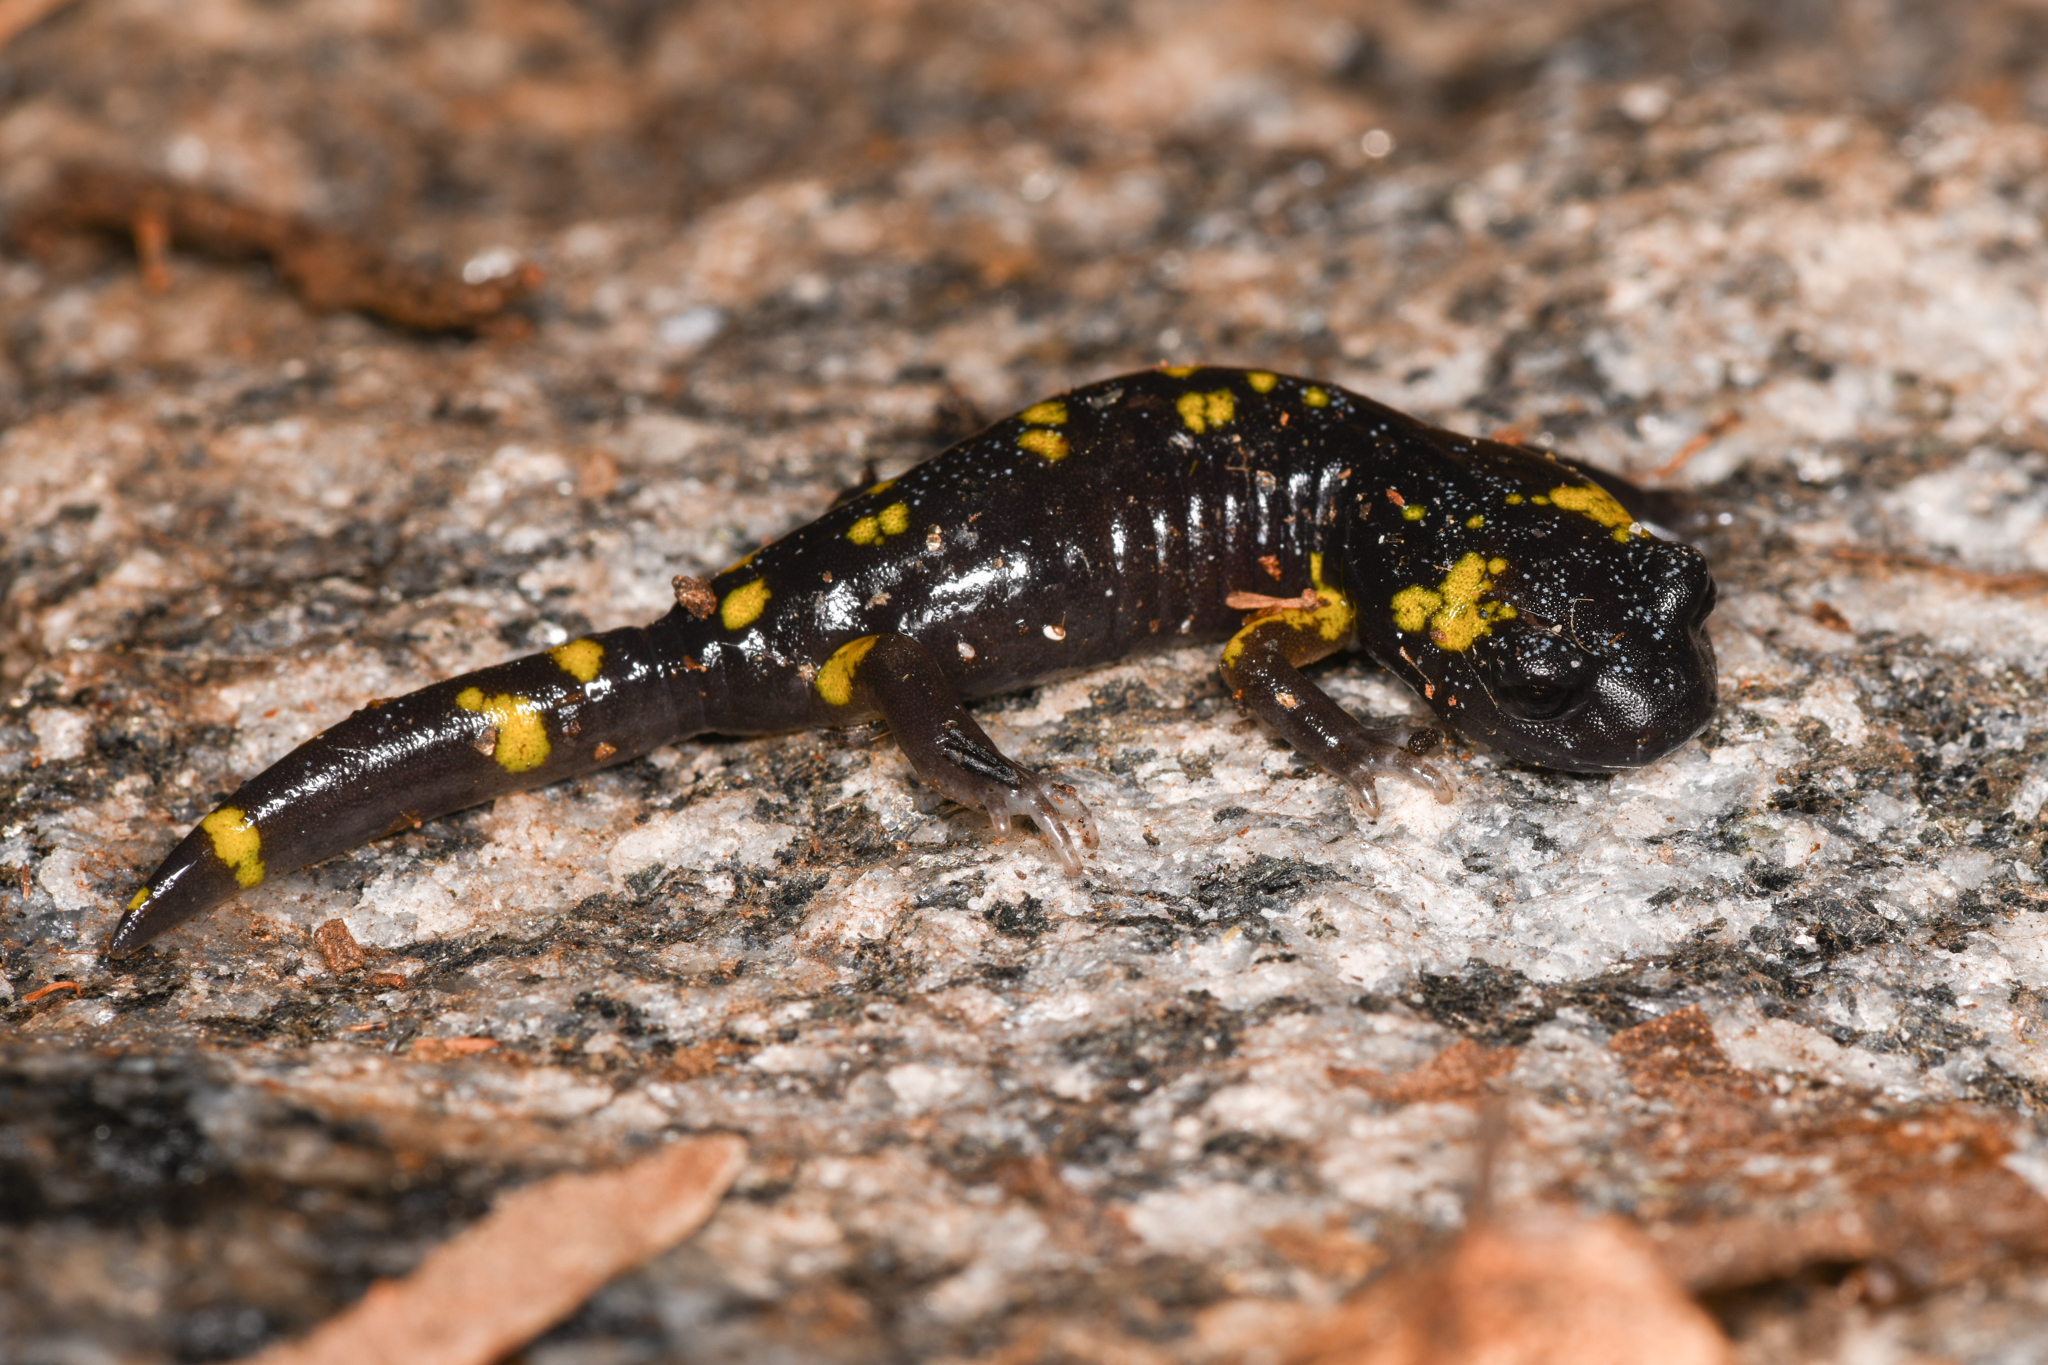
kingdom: Animalia
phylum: Chordata
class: Amphibia
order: Caudata
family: Plethodontidae
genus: Ensatina
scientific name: Ensatina eschscholtzii
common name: Ensatina
